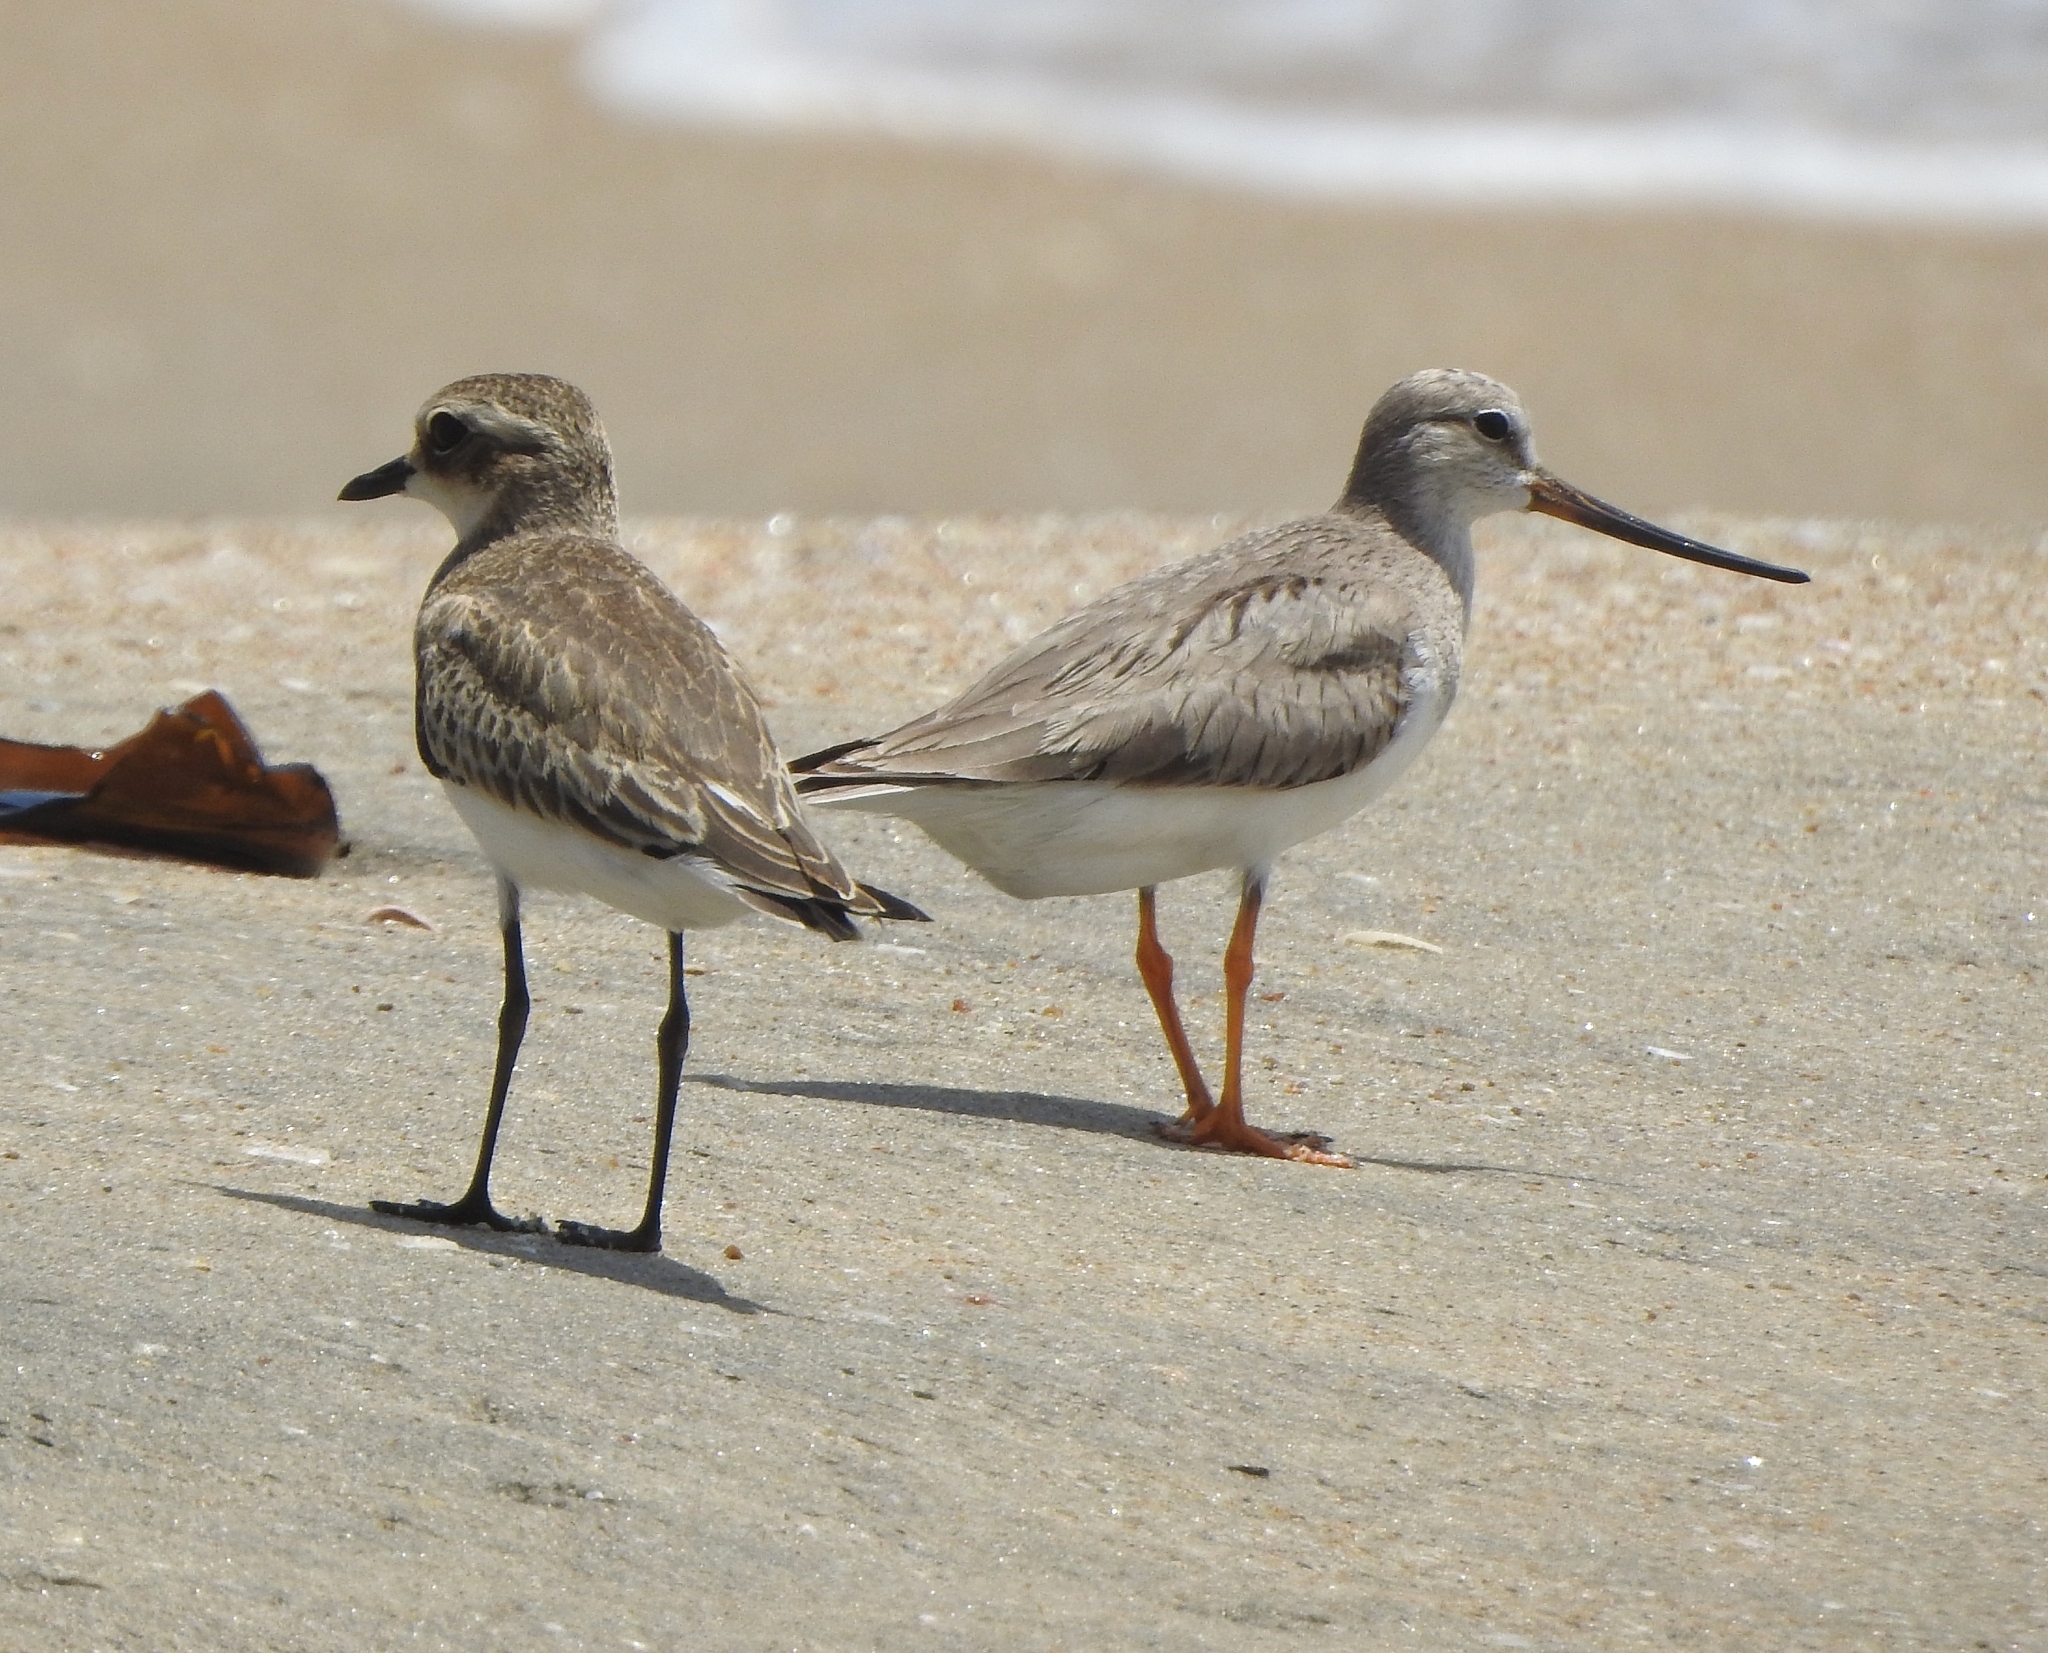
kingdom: Animalia
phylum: Chordata
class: Aves
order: Charadriiformes
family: Scolopacidae
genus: Xenus
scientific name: Xenus cinereus
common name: Terek sandpiper
